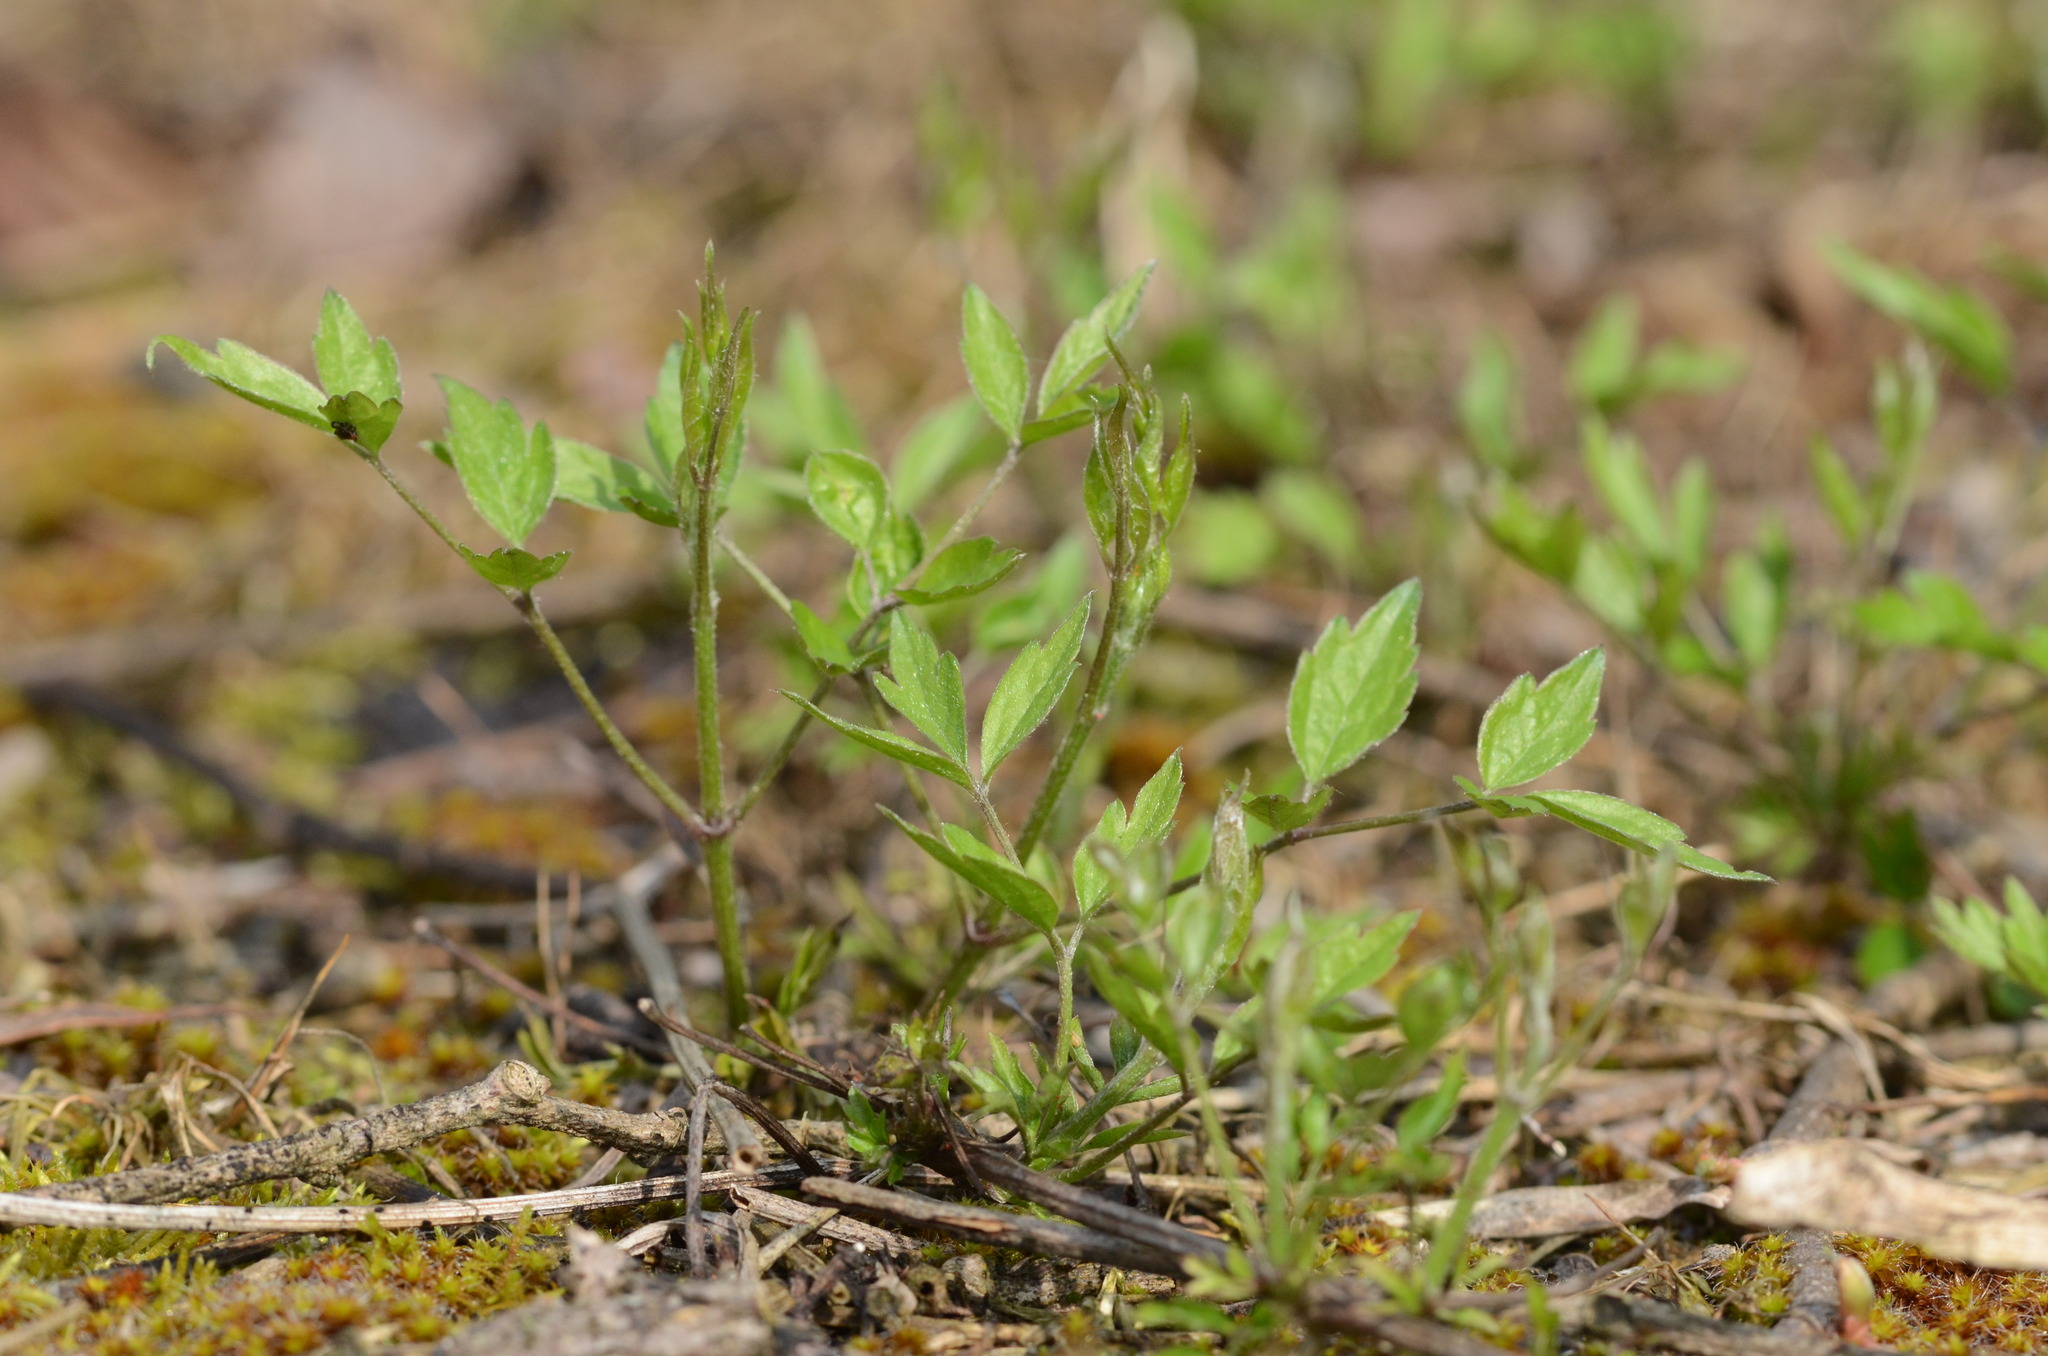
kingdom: Plantae
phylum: Tracheophyta
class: Magnoliopsida
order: Ranunculales
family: Ranunculaceae
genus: Clematis
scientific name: Clematis vitalba
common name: Evergreen clematis
